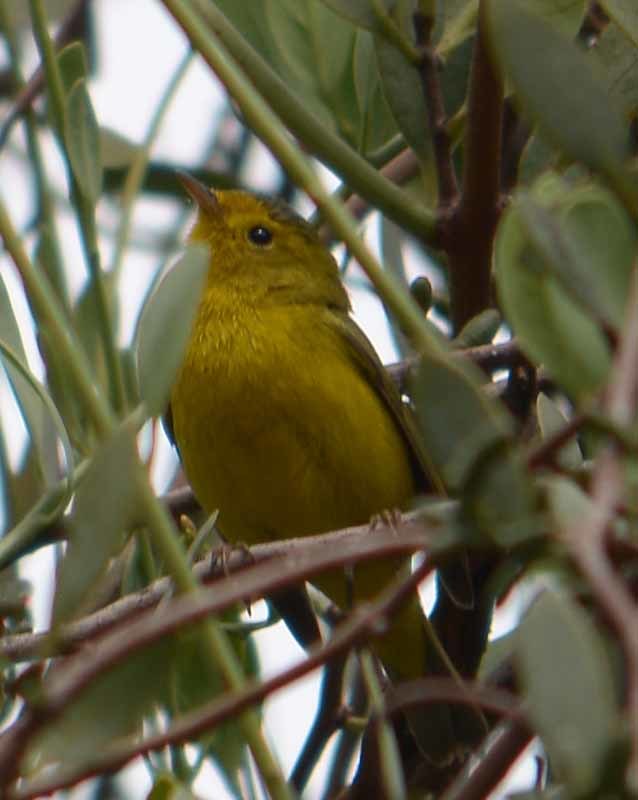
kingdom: Animalia
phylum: Chordata
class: Aves
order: Passeriformes
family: Parulidae
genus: Cardellina
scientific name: Cardellina pusilla
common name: Wilson's warbler
